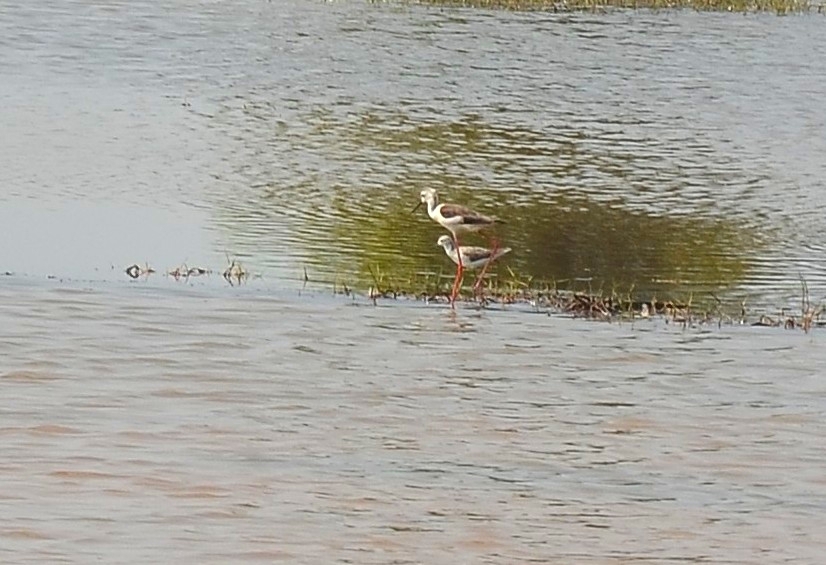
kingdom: Animalia
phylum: Chordata
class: Aves
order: Charadriiformes
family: Recurvirostridae
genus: Himantopus
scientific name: Himantopus himantopus
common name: Black-winged stilt
